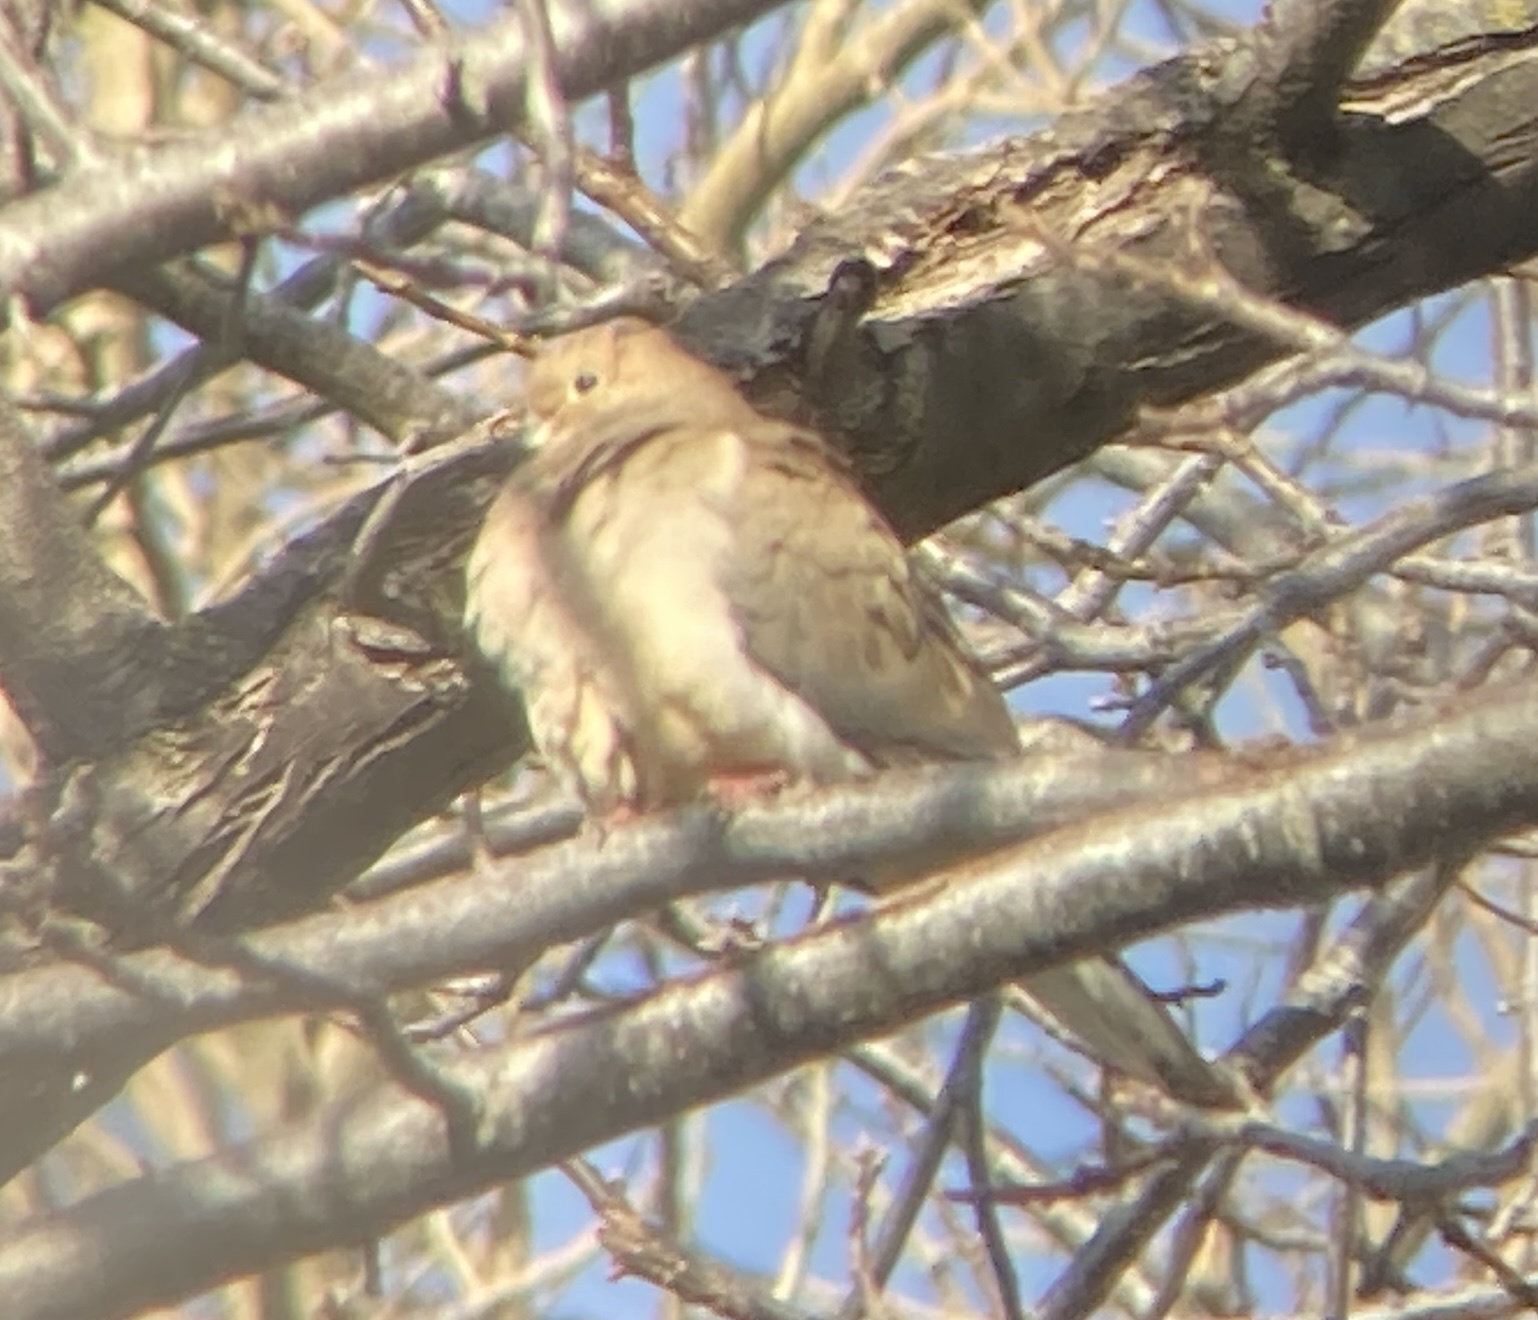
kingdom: Animalia
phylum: Chordata
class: Aves
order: Columbiformes
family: Columbidae
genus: Zenaida
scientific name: Zenaida macroura
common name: Mourning dove
